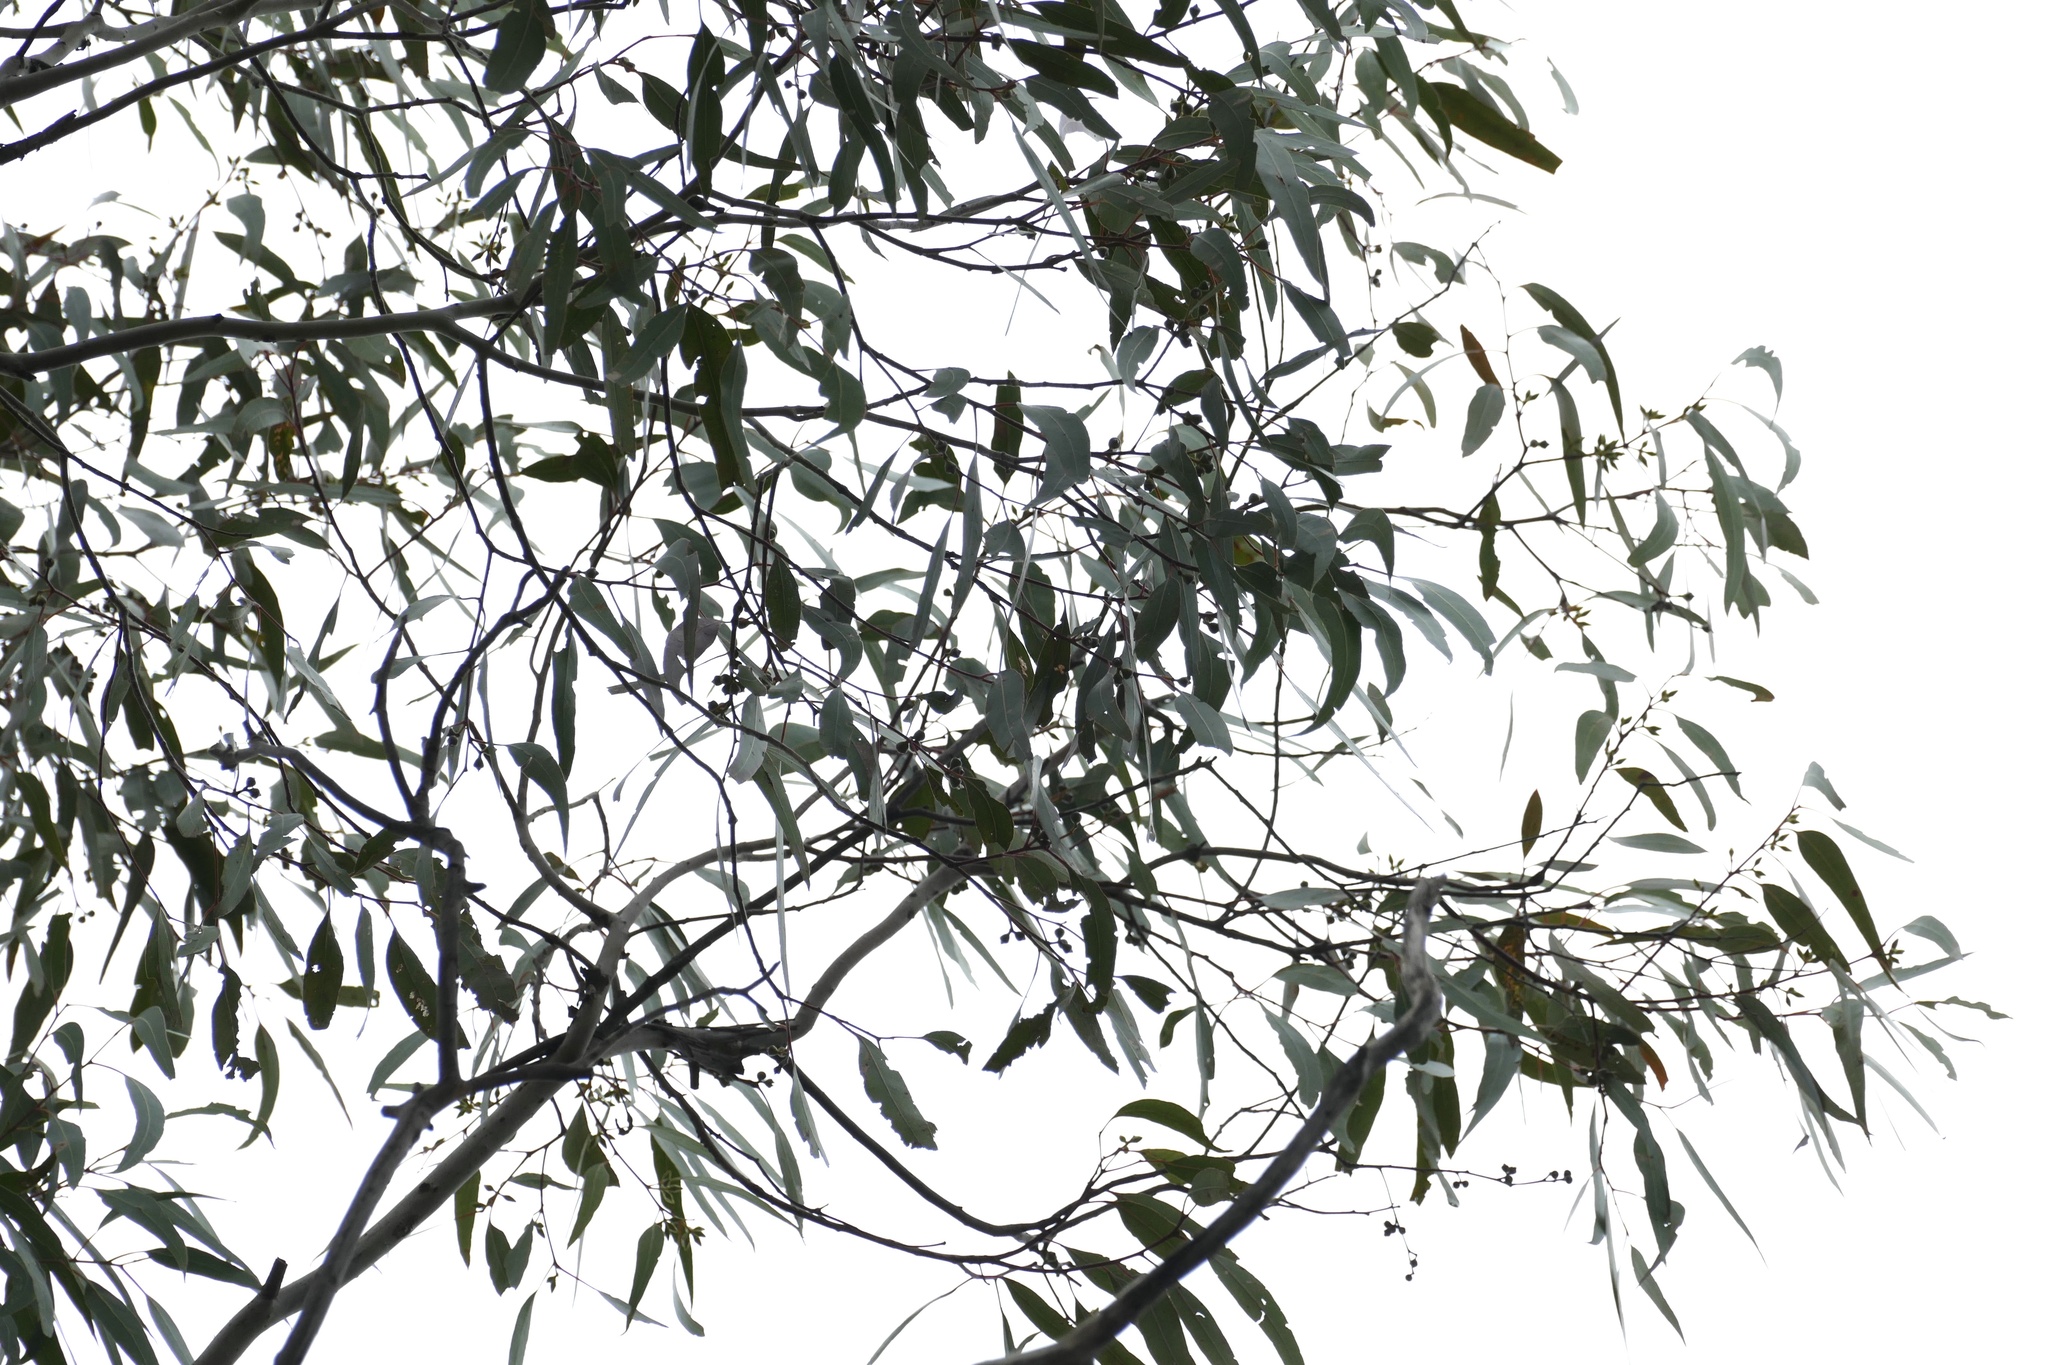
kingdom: Plantae
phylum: Tracheophyta
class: Magnoliopsida
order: Myrtales
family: Myrtaceae
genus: Eucalyptus
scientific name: Eucalyptus chloroclada
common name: Baradine red gum
